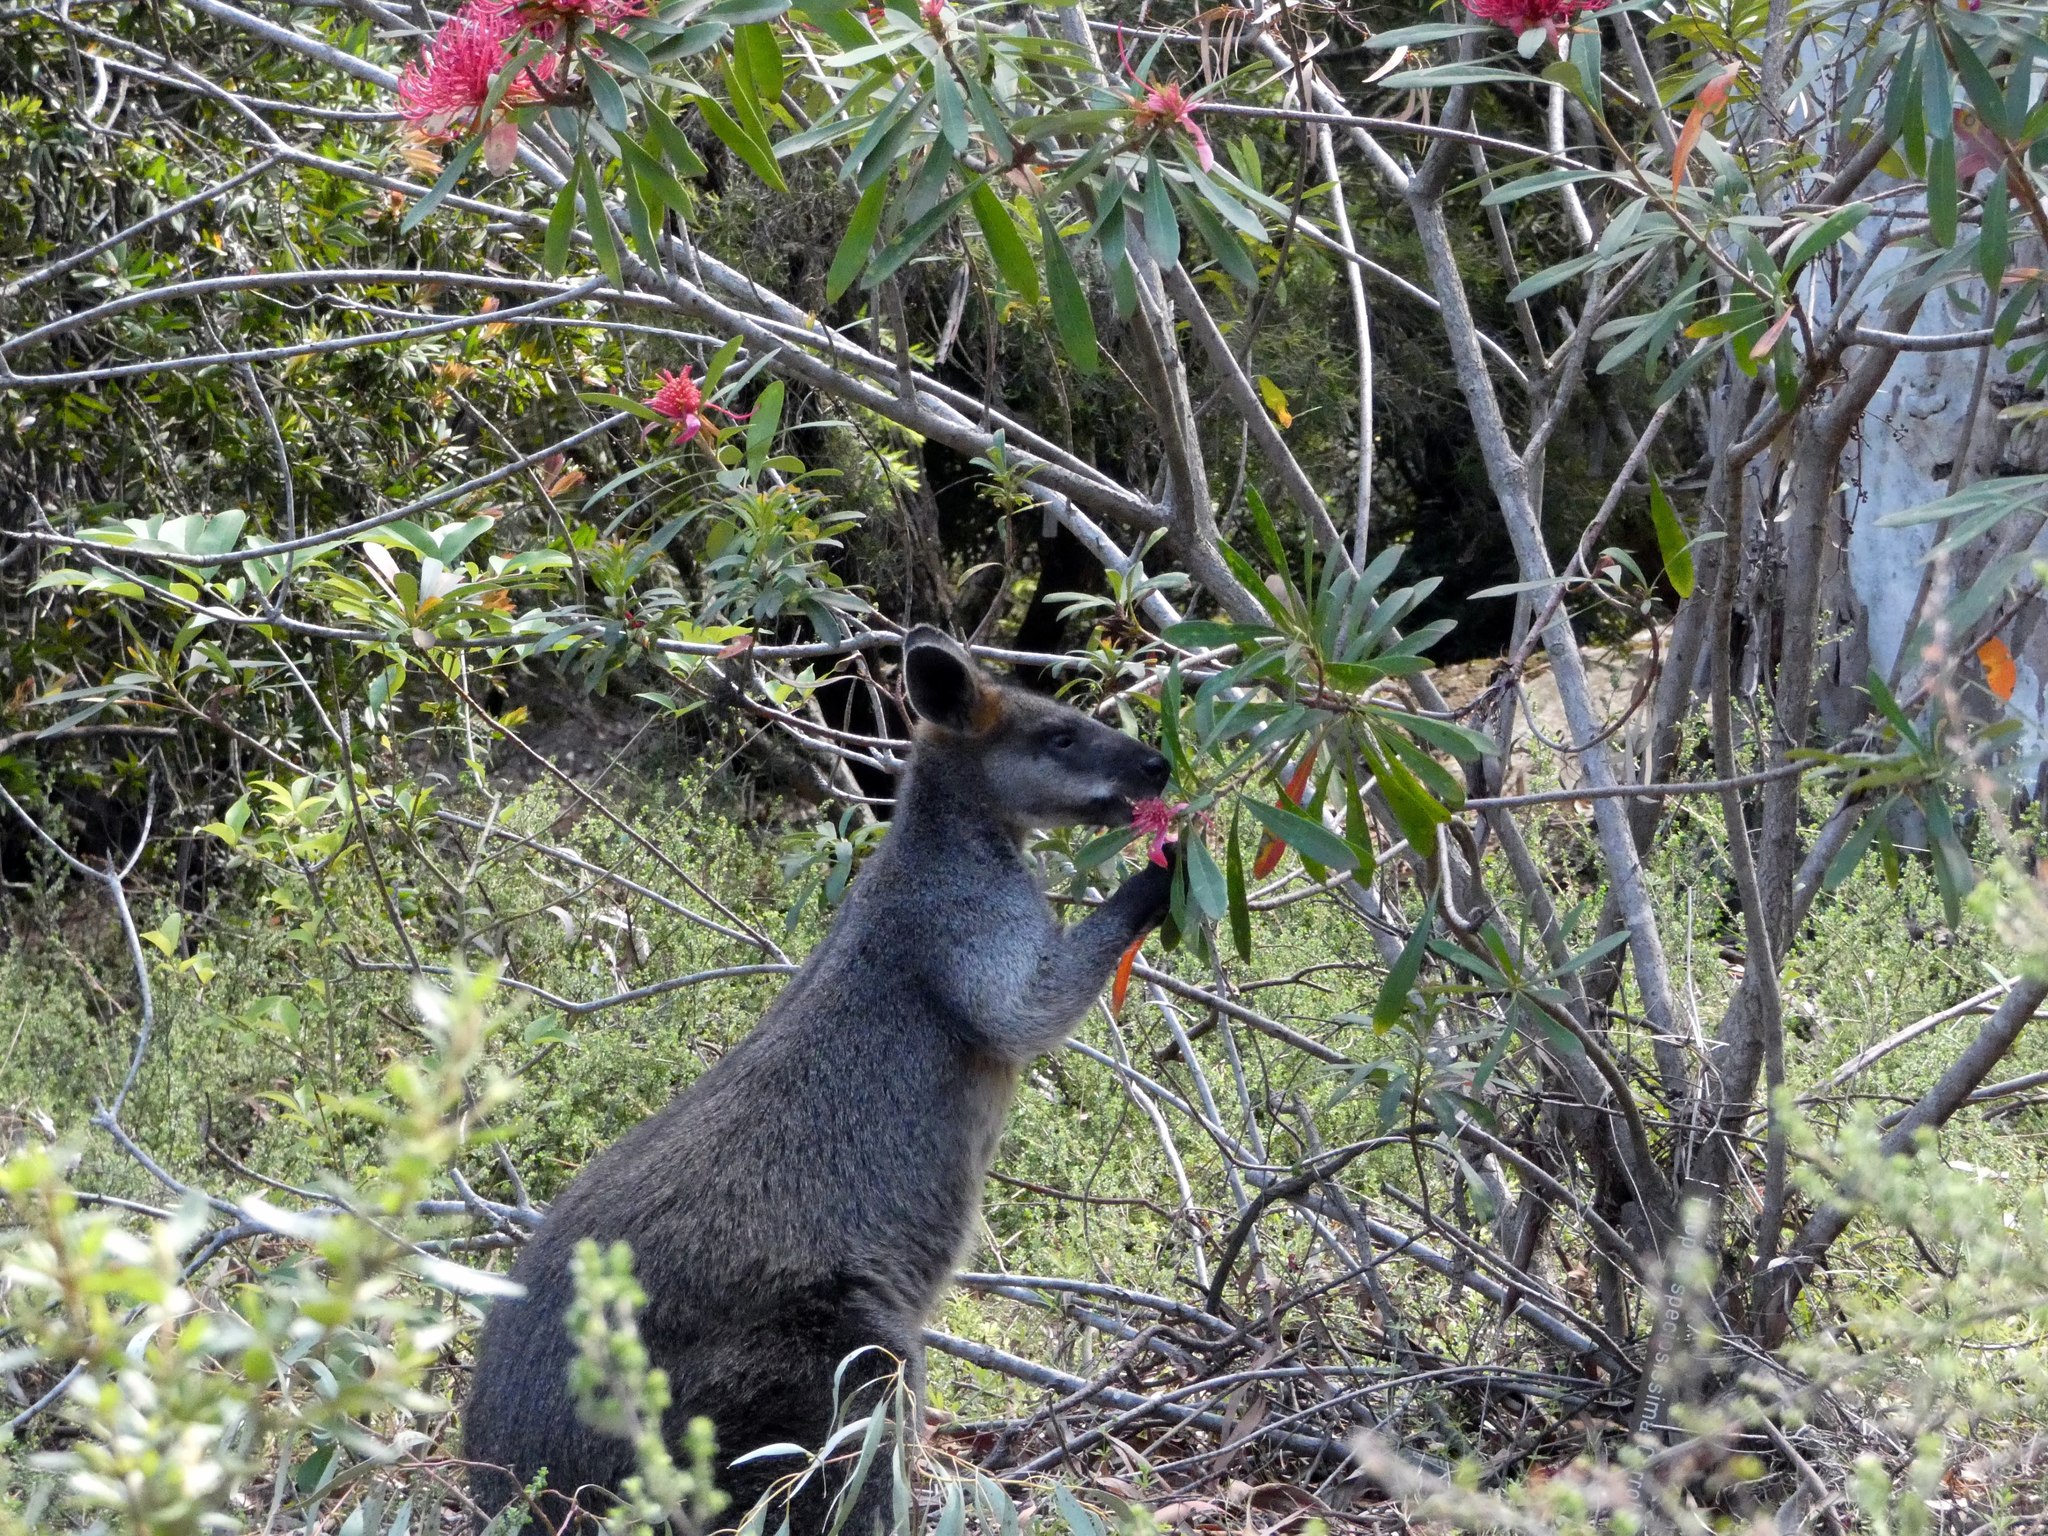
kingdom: Animalia
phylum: Chordata
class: Mammalia
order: Diprotodontia
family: Macropodidae
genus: Wallabia
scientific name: Wallabia bicolor
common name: Swamp wallaby
